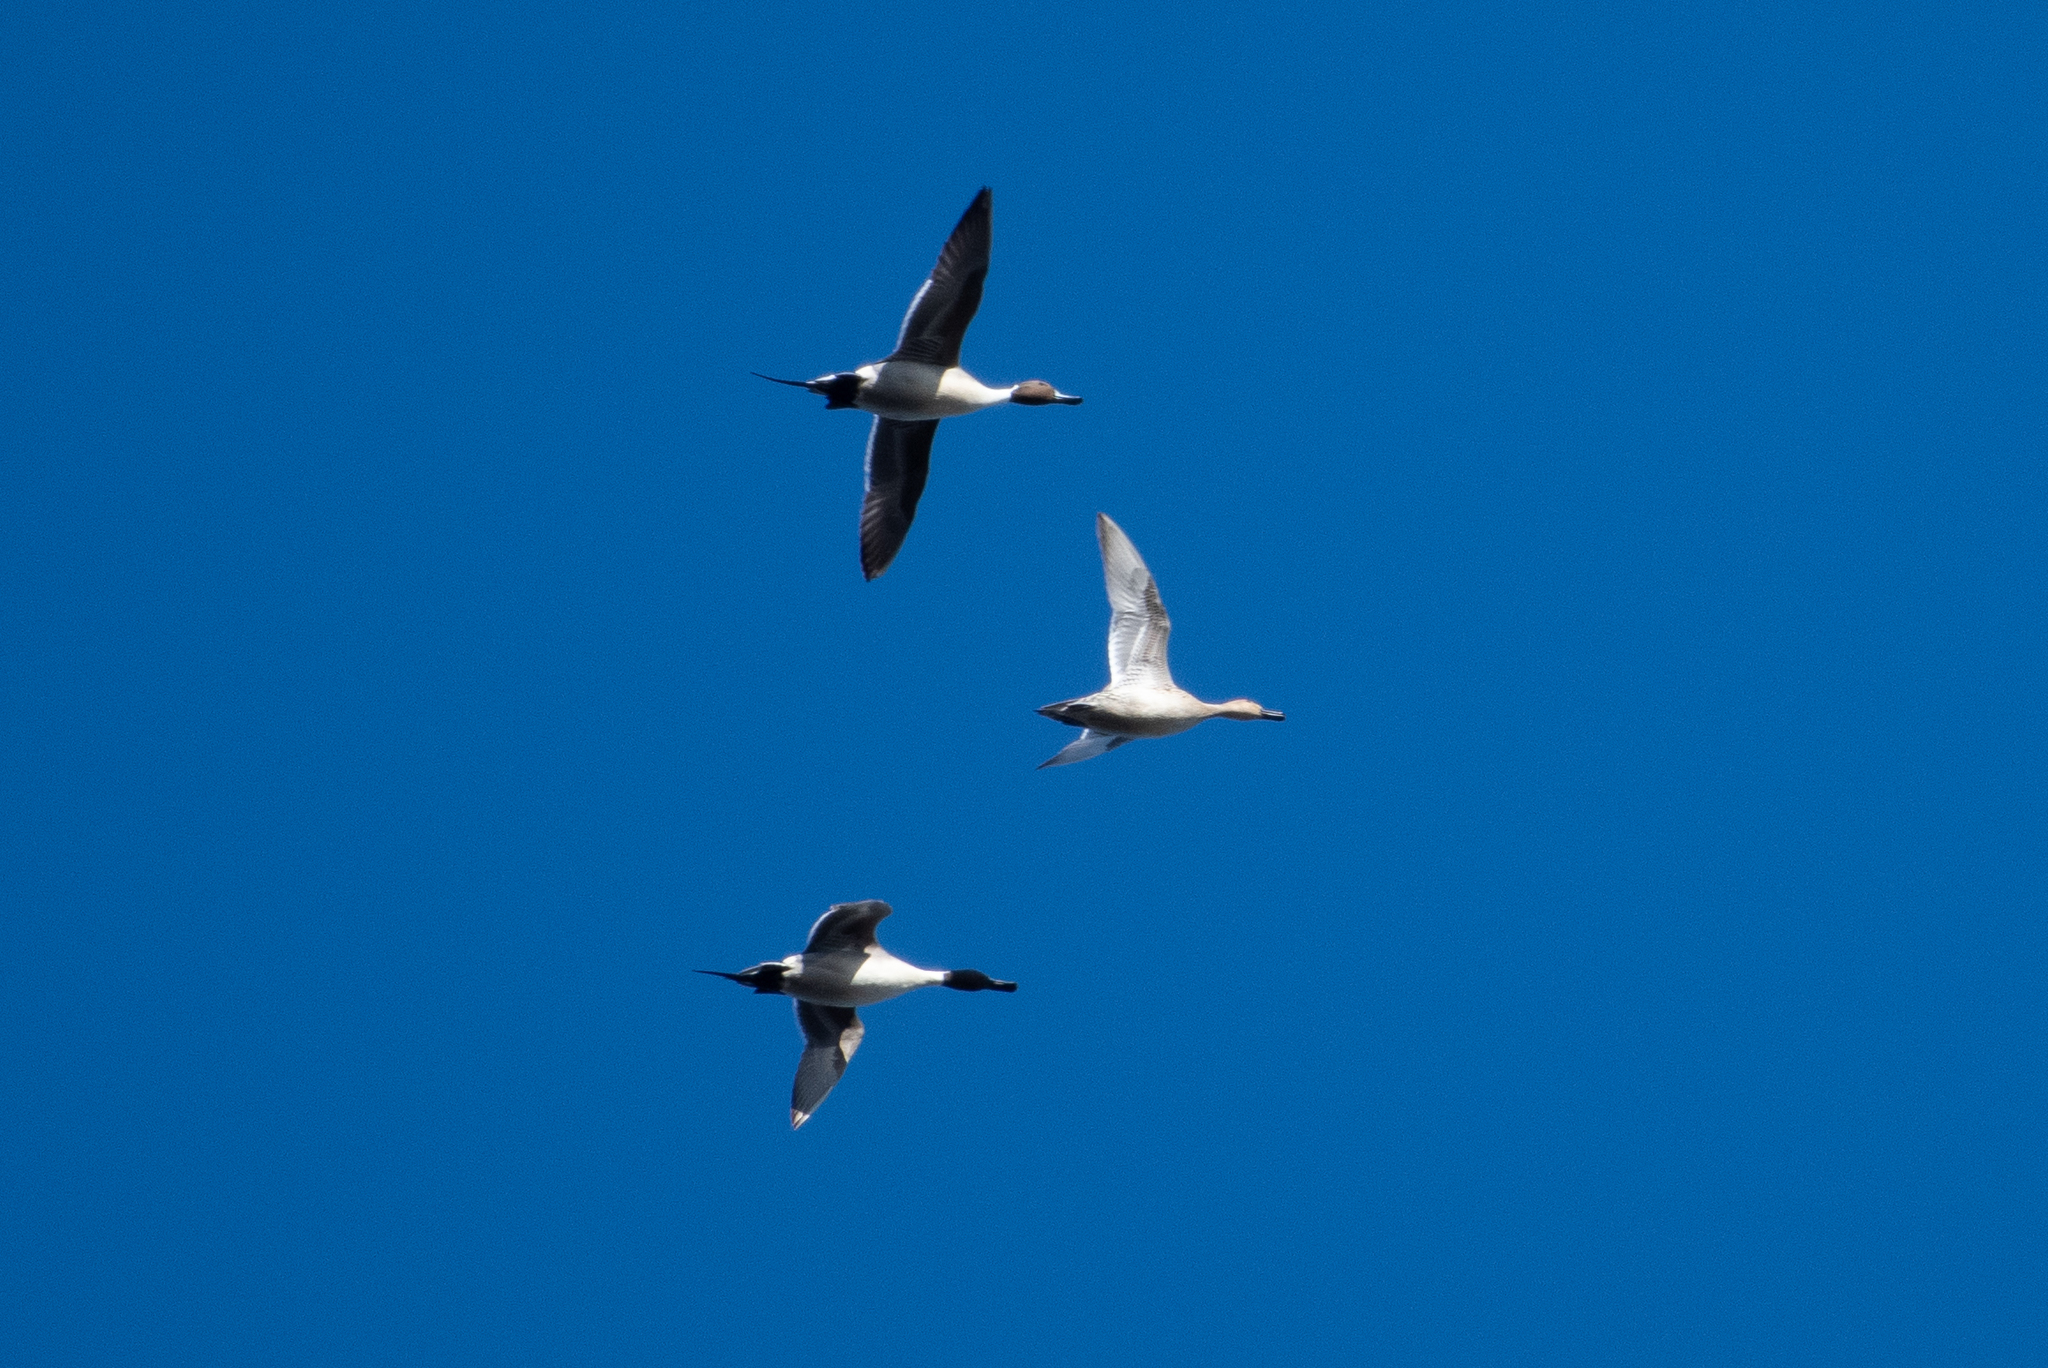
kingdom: Animalia
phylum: Chordata
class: Aves
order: Anseriformes
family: Anatidae
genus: Anas
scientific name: Anas acuta
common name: Northern pintail
